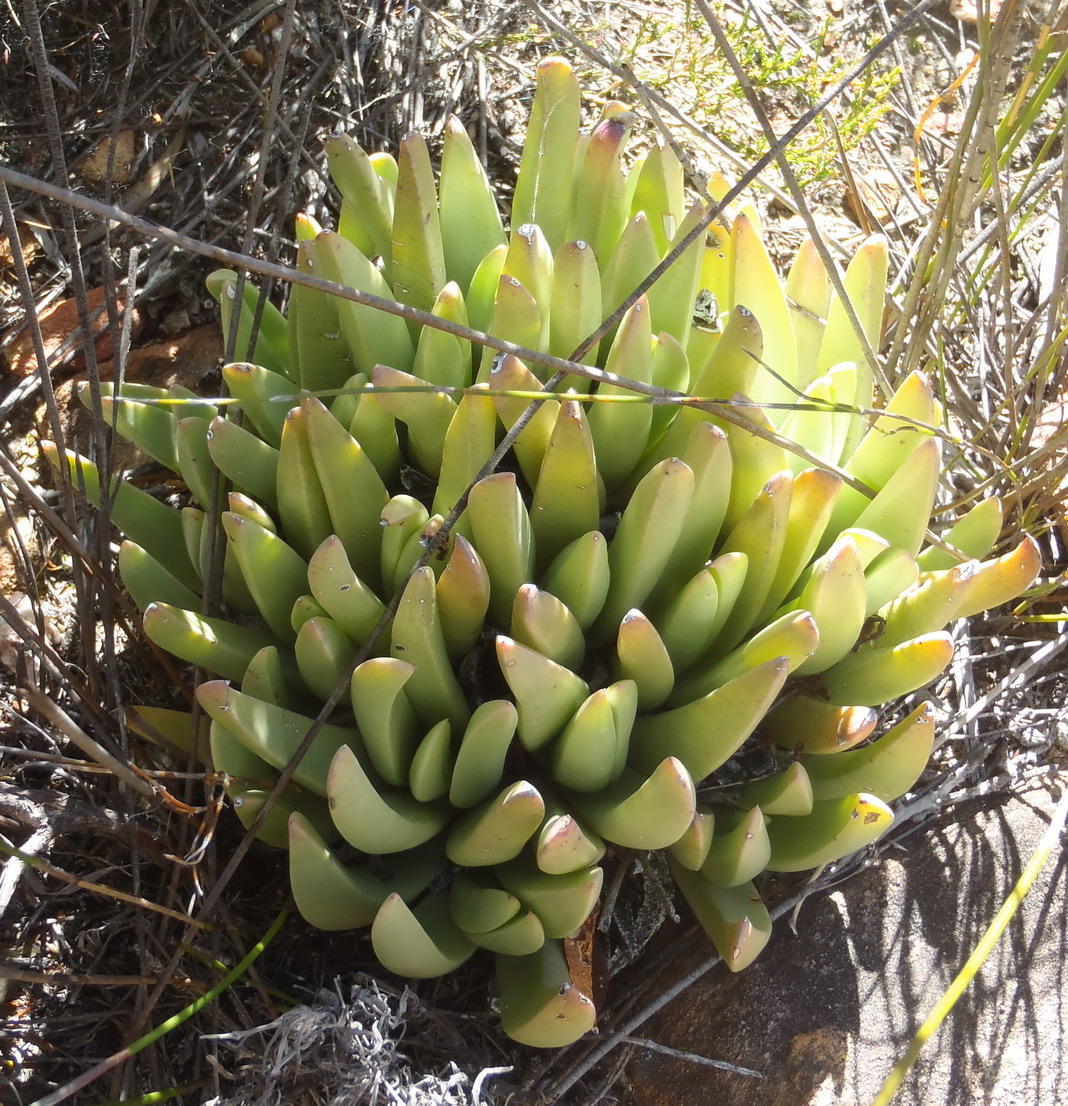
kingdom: Plantae
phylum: Tracheophyta
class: Magnoliopsida
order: Caryophyllales
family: Aizoaceae
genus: Machairophyllum
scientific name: Machairophyllum albidum
